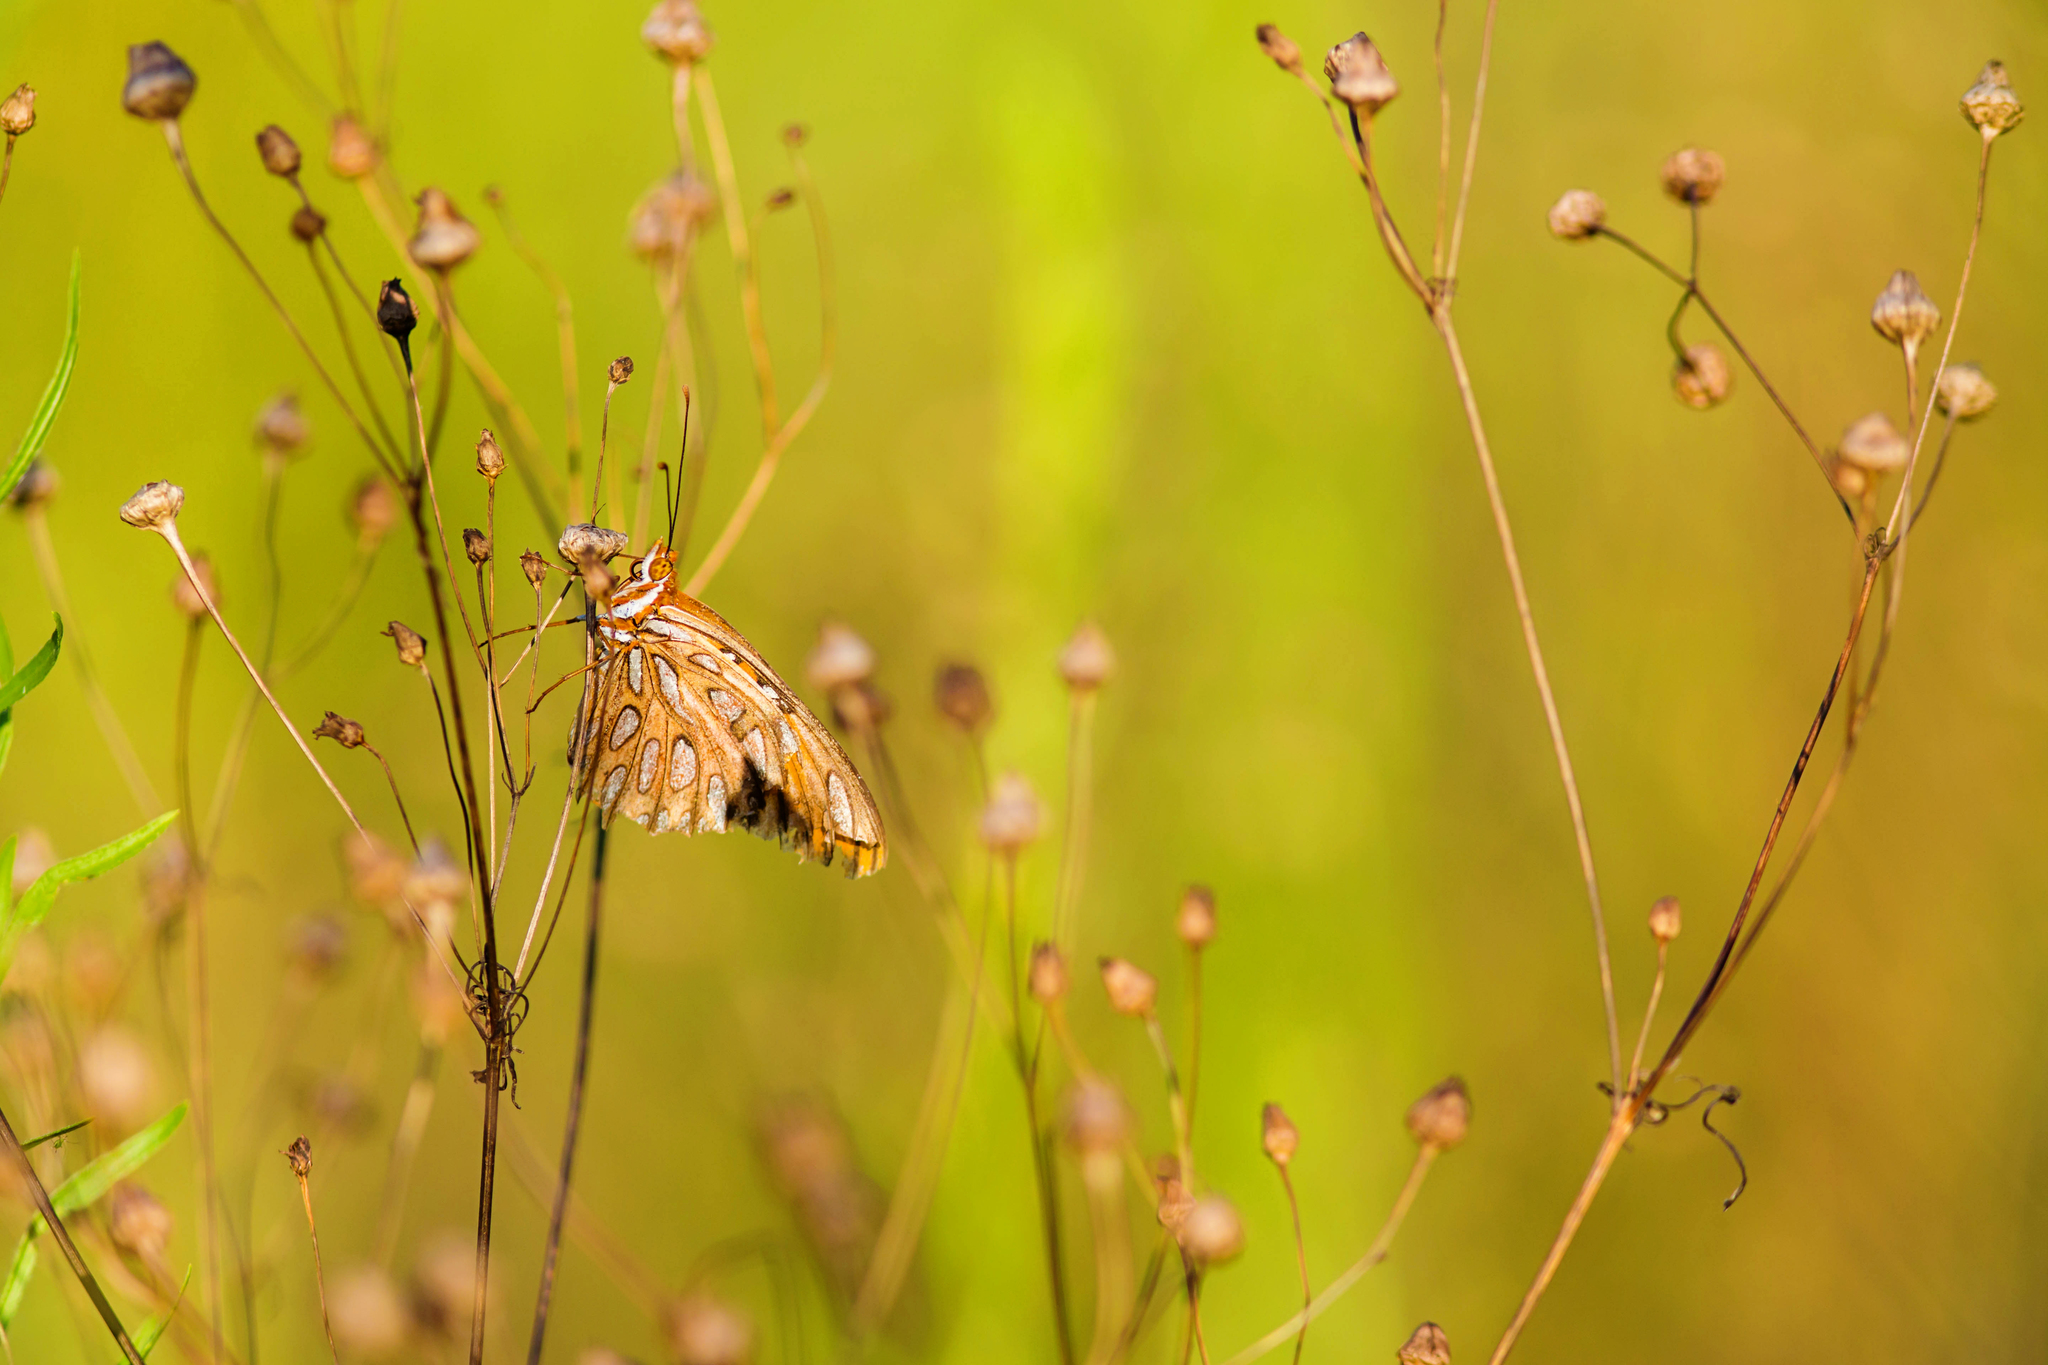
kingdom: Animalia
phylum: Arthropoda
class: Insecta
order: Lepidoptera
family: Nymphalidae
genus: Dione
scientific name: Dione vanillae
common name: Gulf fritillary
